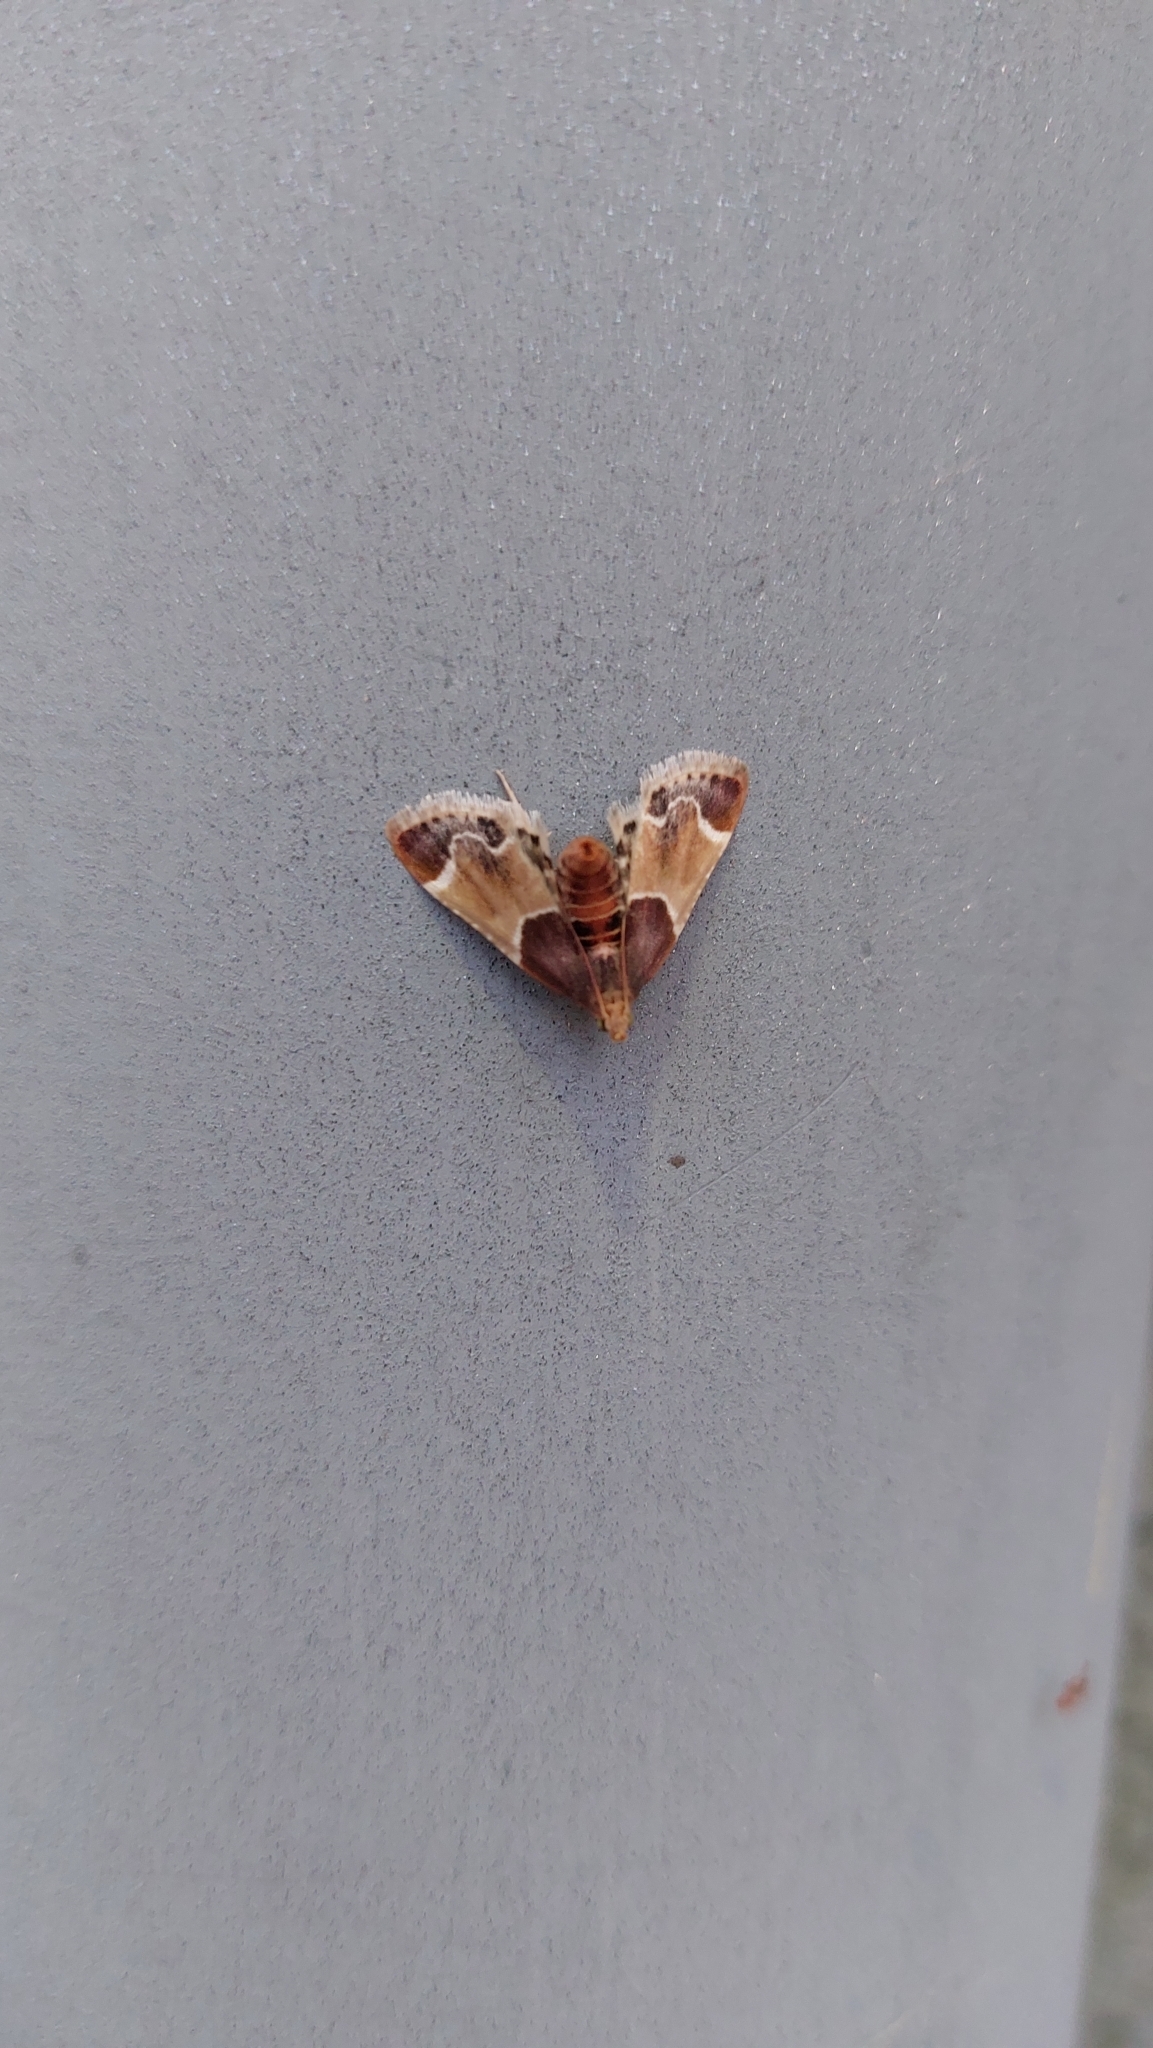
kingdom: Animalia
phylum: Arthropoda
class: Insecta
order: Lepidoptera
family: Pyralidae
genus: Pyralis
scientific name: Pyralis farinalis
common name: Meal moth
